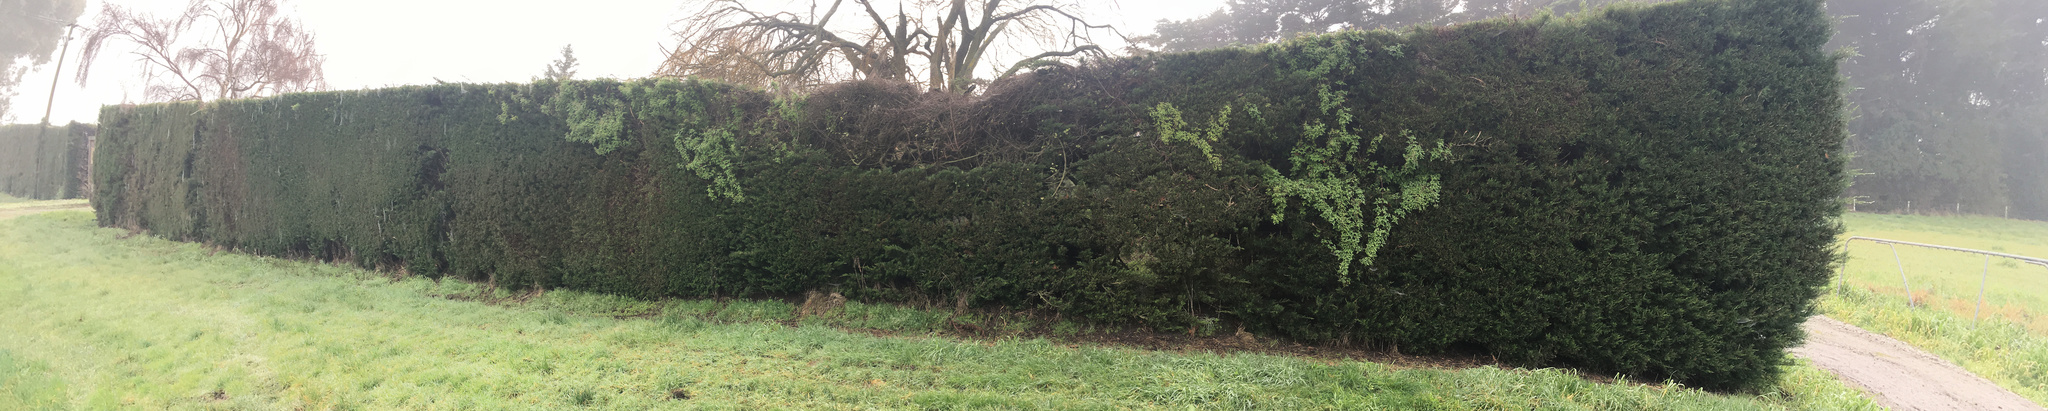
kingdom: Plantae
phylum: Tracheophyta
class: Magnoliopsida
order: Lamiales
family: Bignoniaceae
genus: Eccremocarpus
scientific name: Eccremocarpus scaber
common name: Chilean glory-flower
